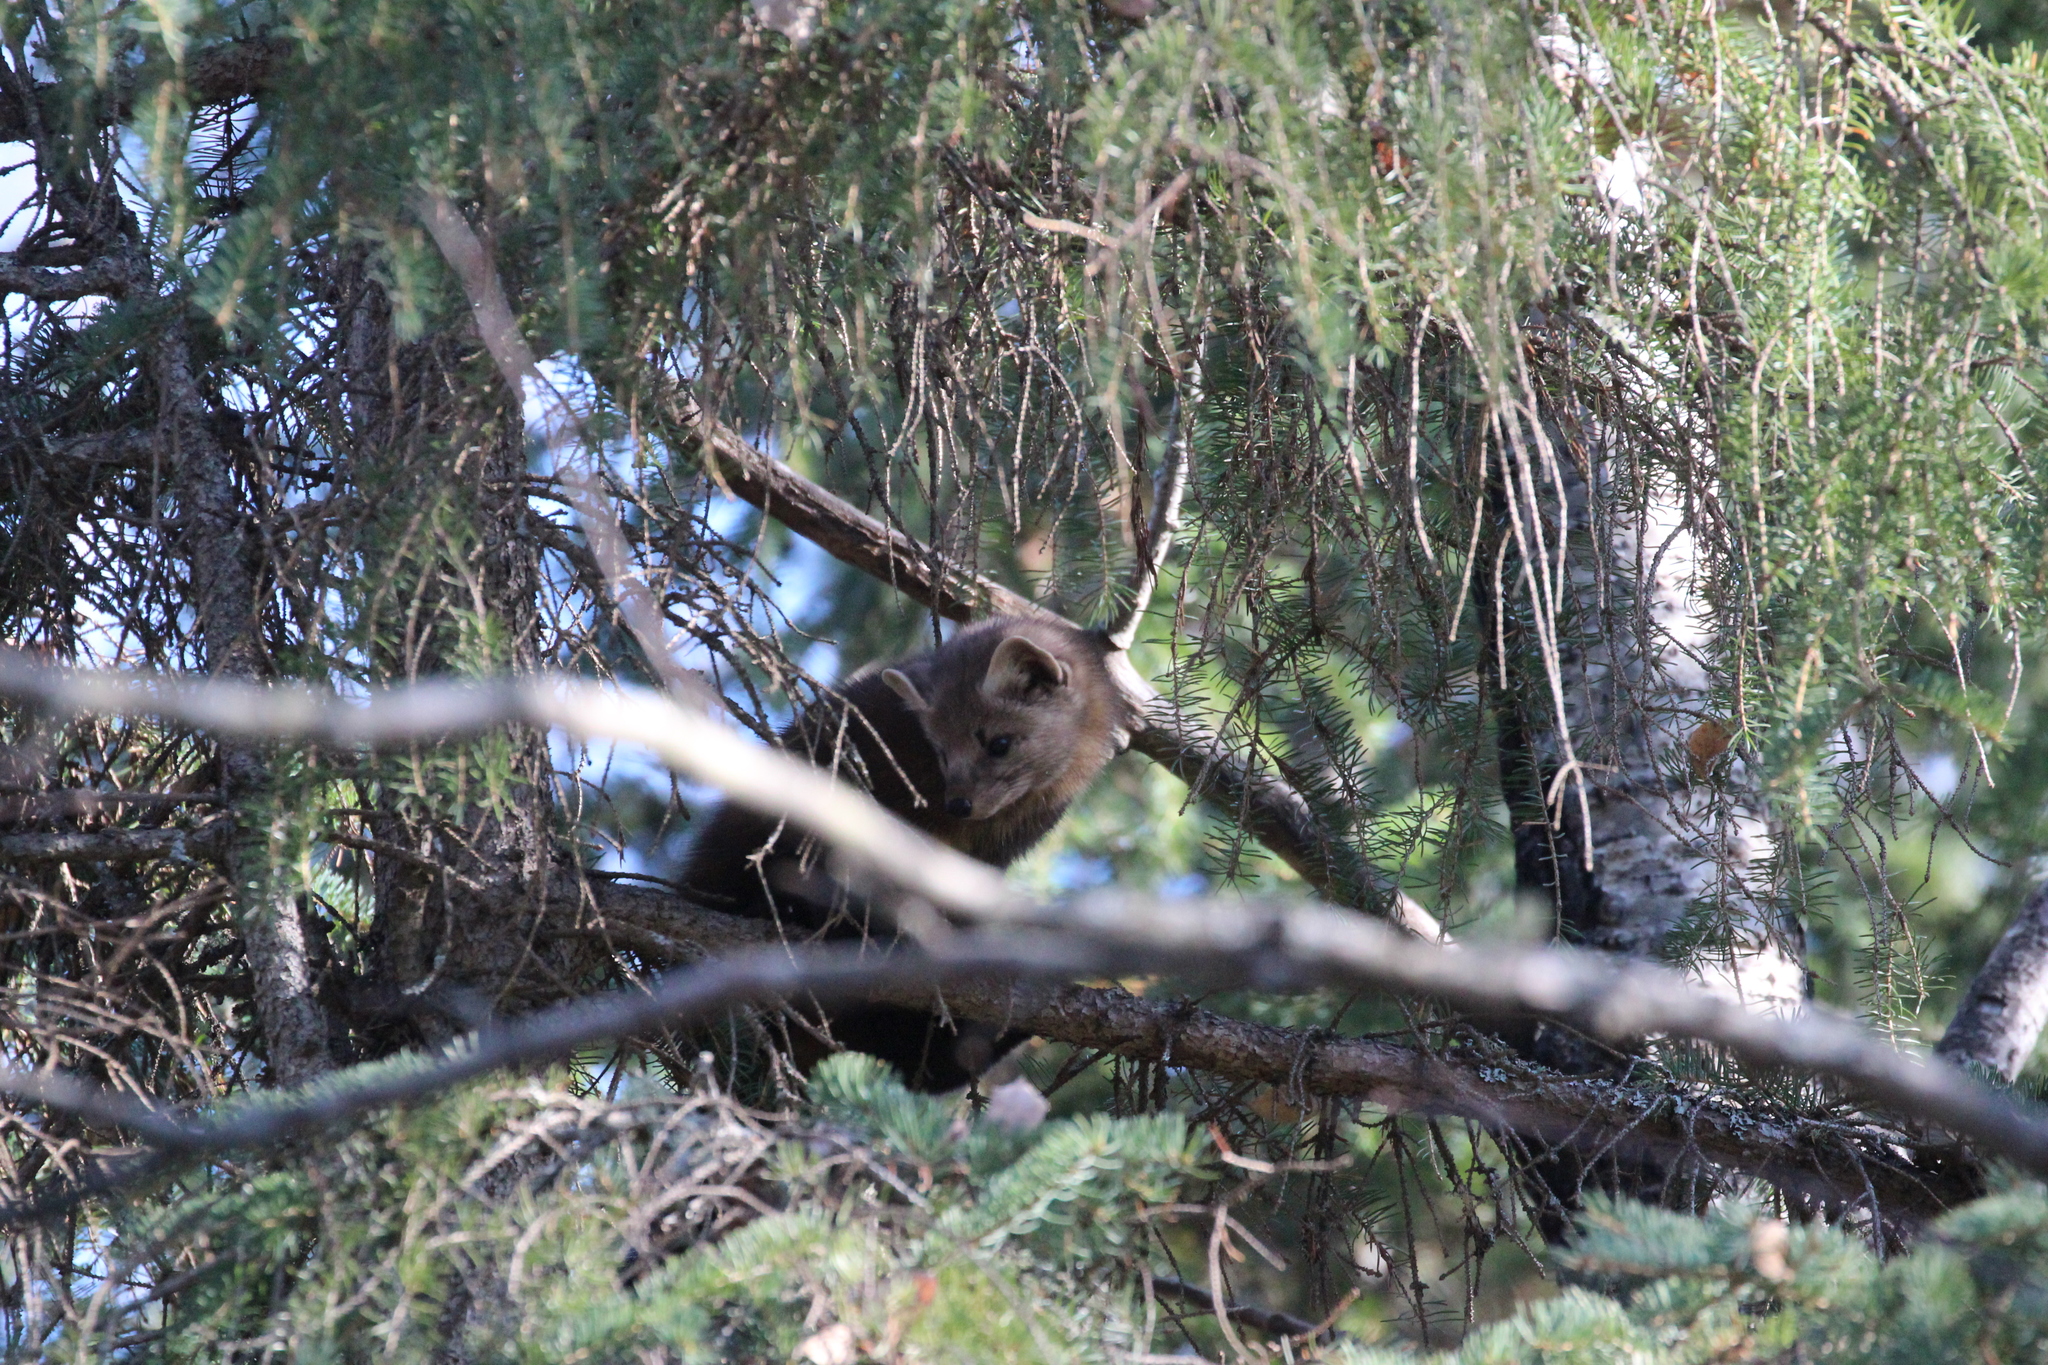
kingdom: Animalia
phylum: Chordata
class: Mammalia
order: Carnivora
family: Mustelidae
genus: Martes
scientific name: Martes americana
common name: American marten
